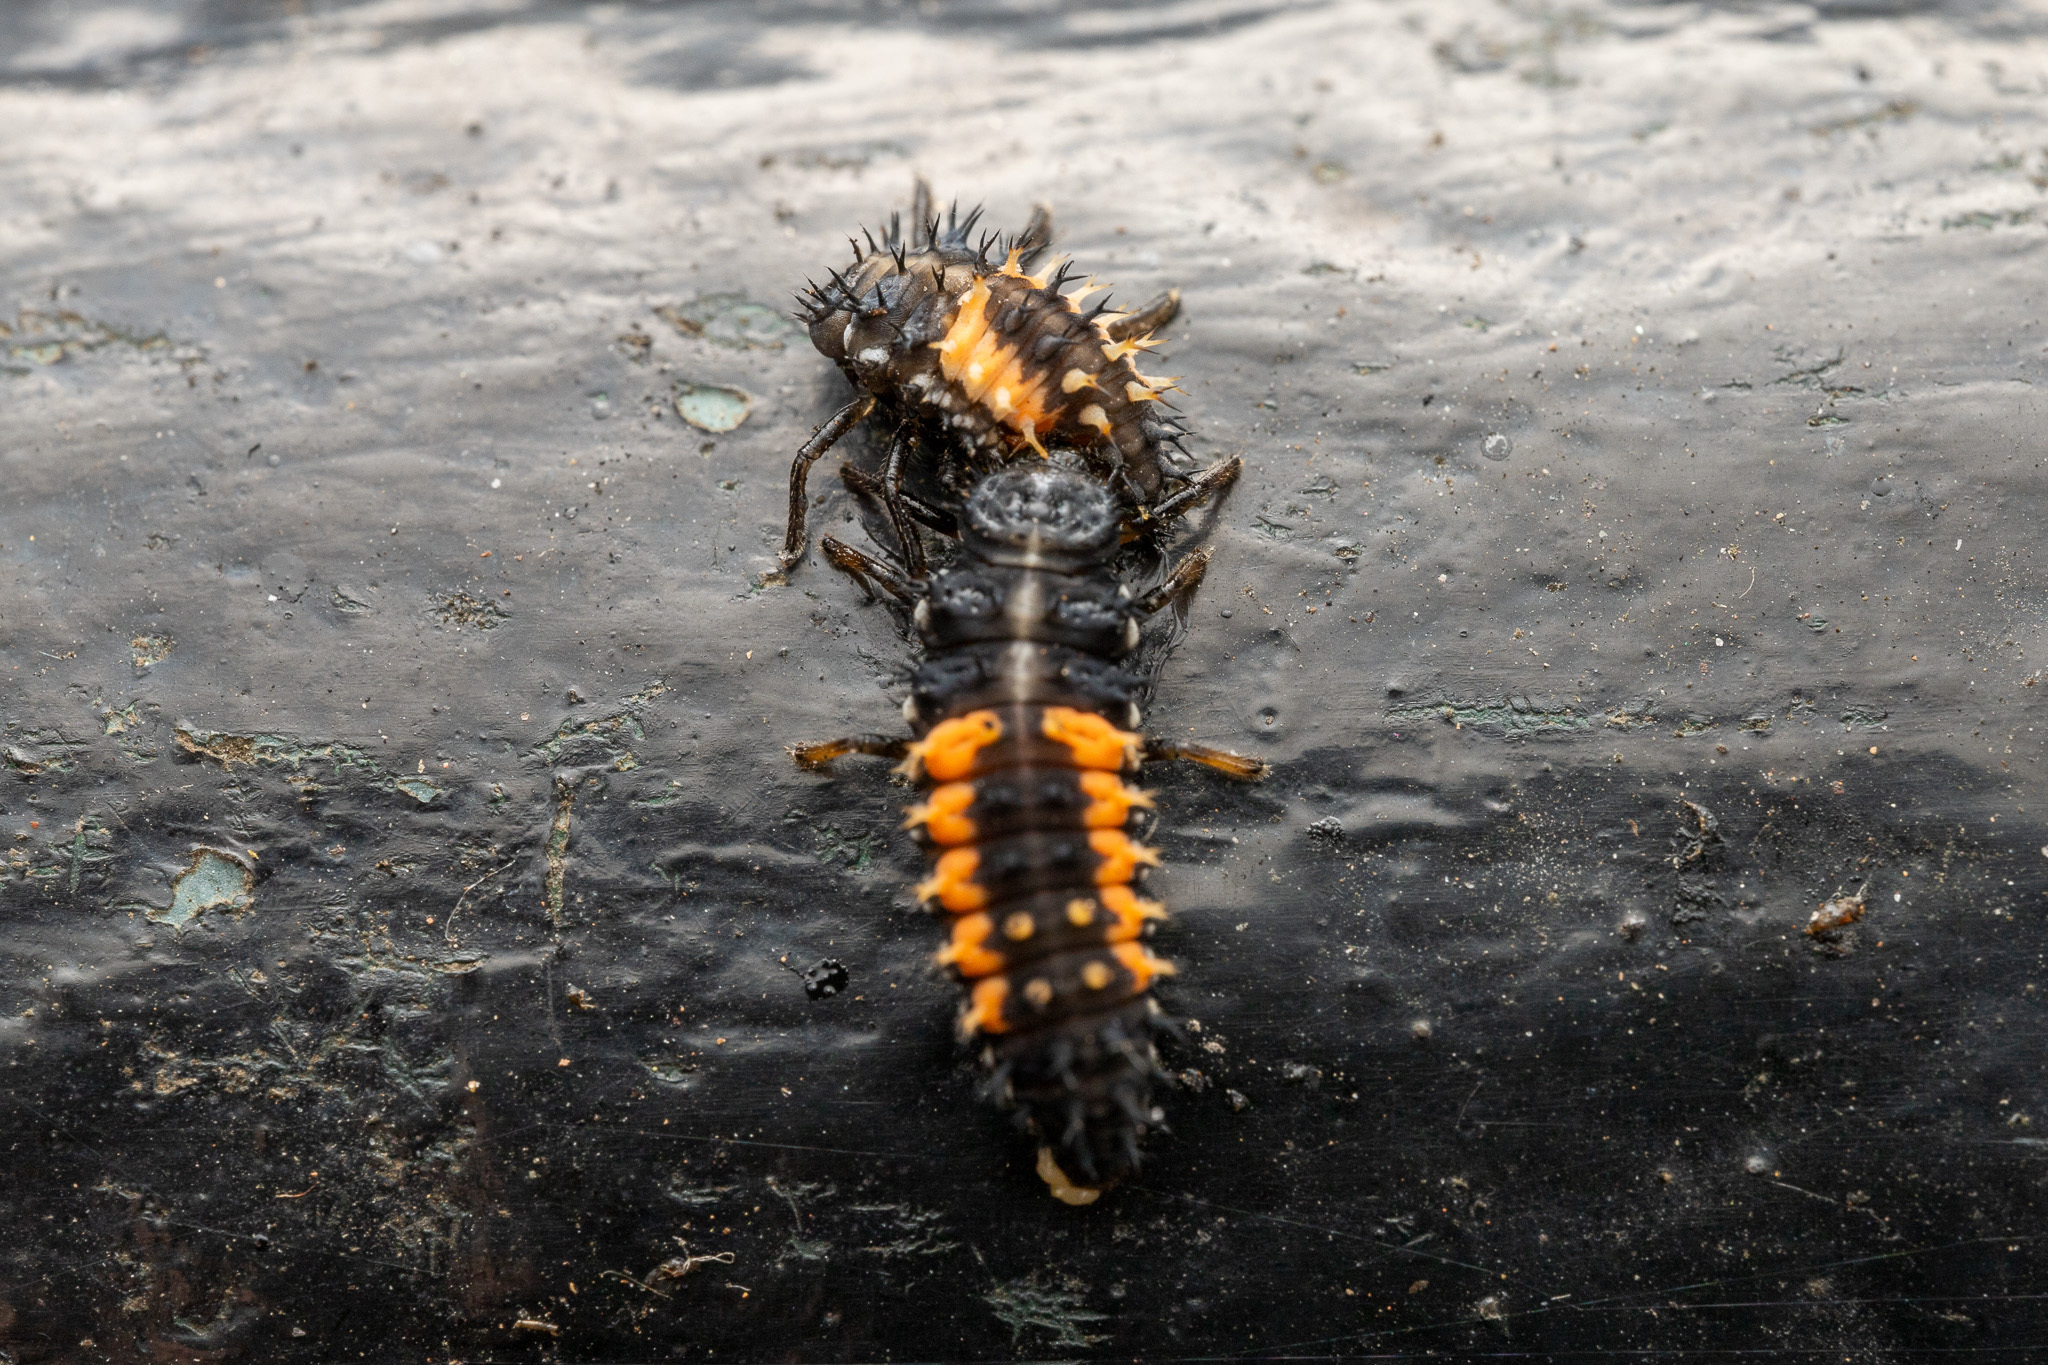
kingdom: Animalia
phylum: Arthropoda
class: Insecta
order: Coleoptera
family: Coccinellidae
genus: Harmonia
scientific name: Harmonia axyridis
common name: Harlequin ladybird
